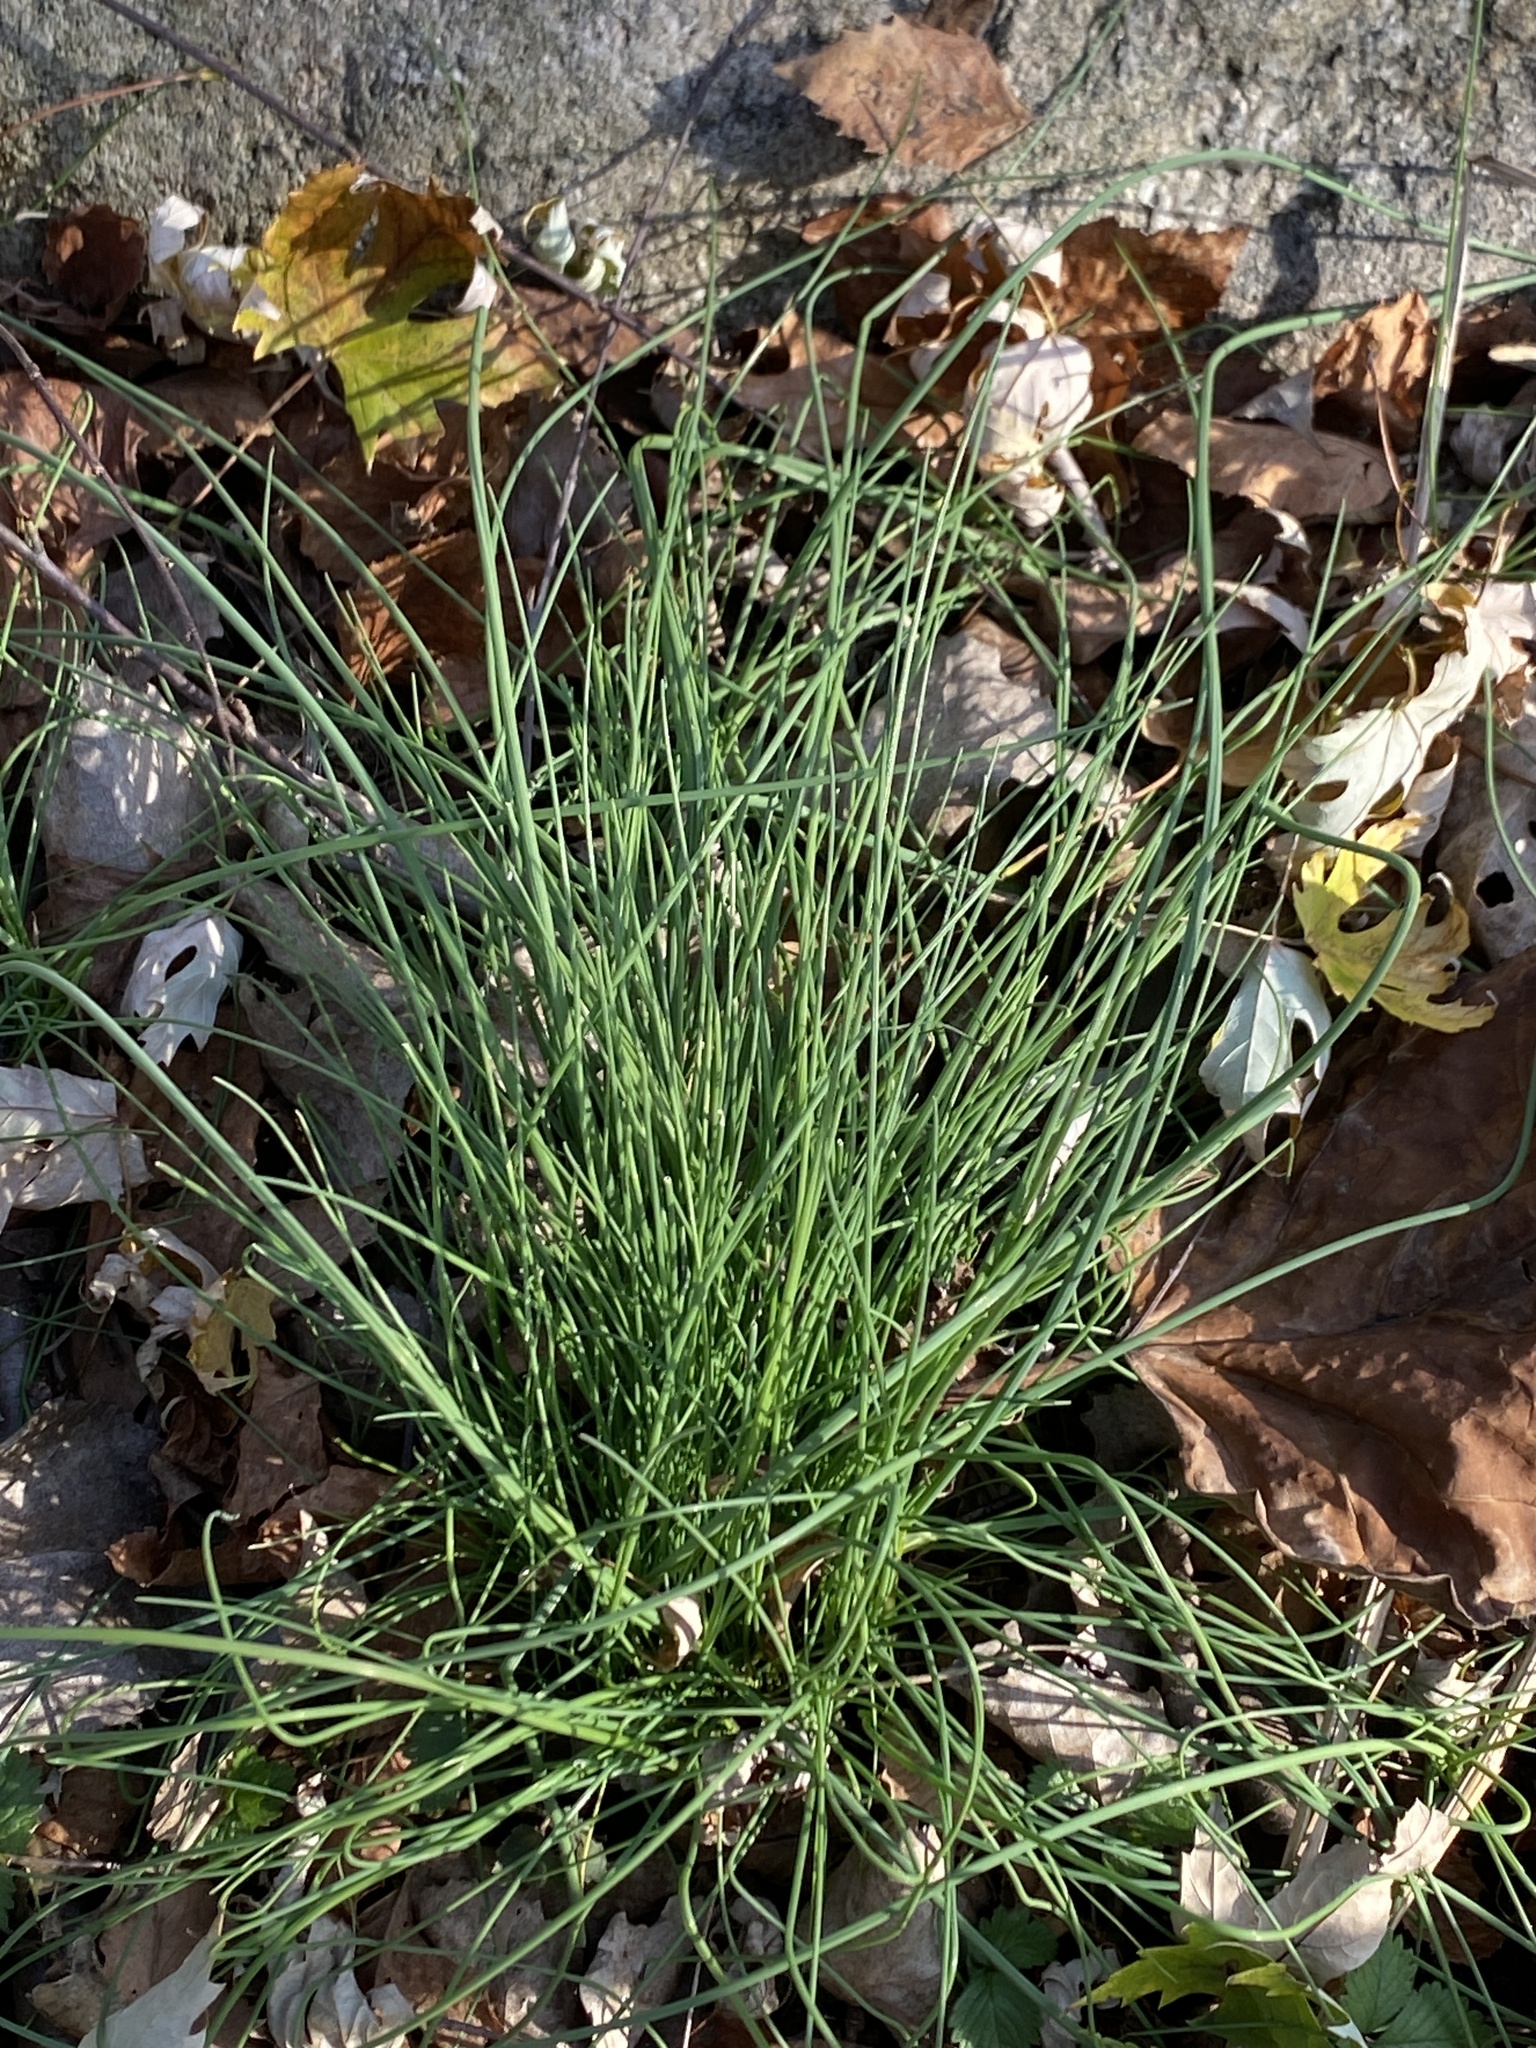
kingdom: Plantae
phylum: Tracheophyta
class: Liliopsida
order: Asparagales
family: Amaryllidaceae
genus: Allium
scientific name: Allium vineale
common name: Crow garlic
